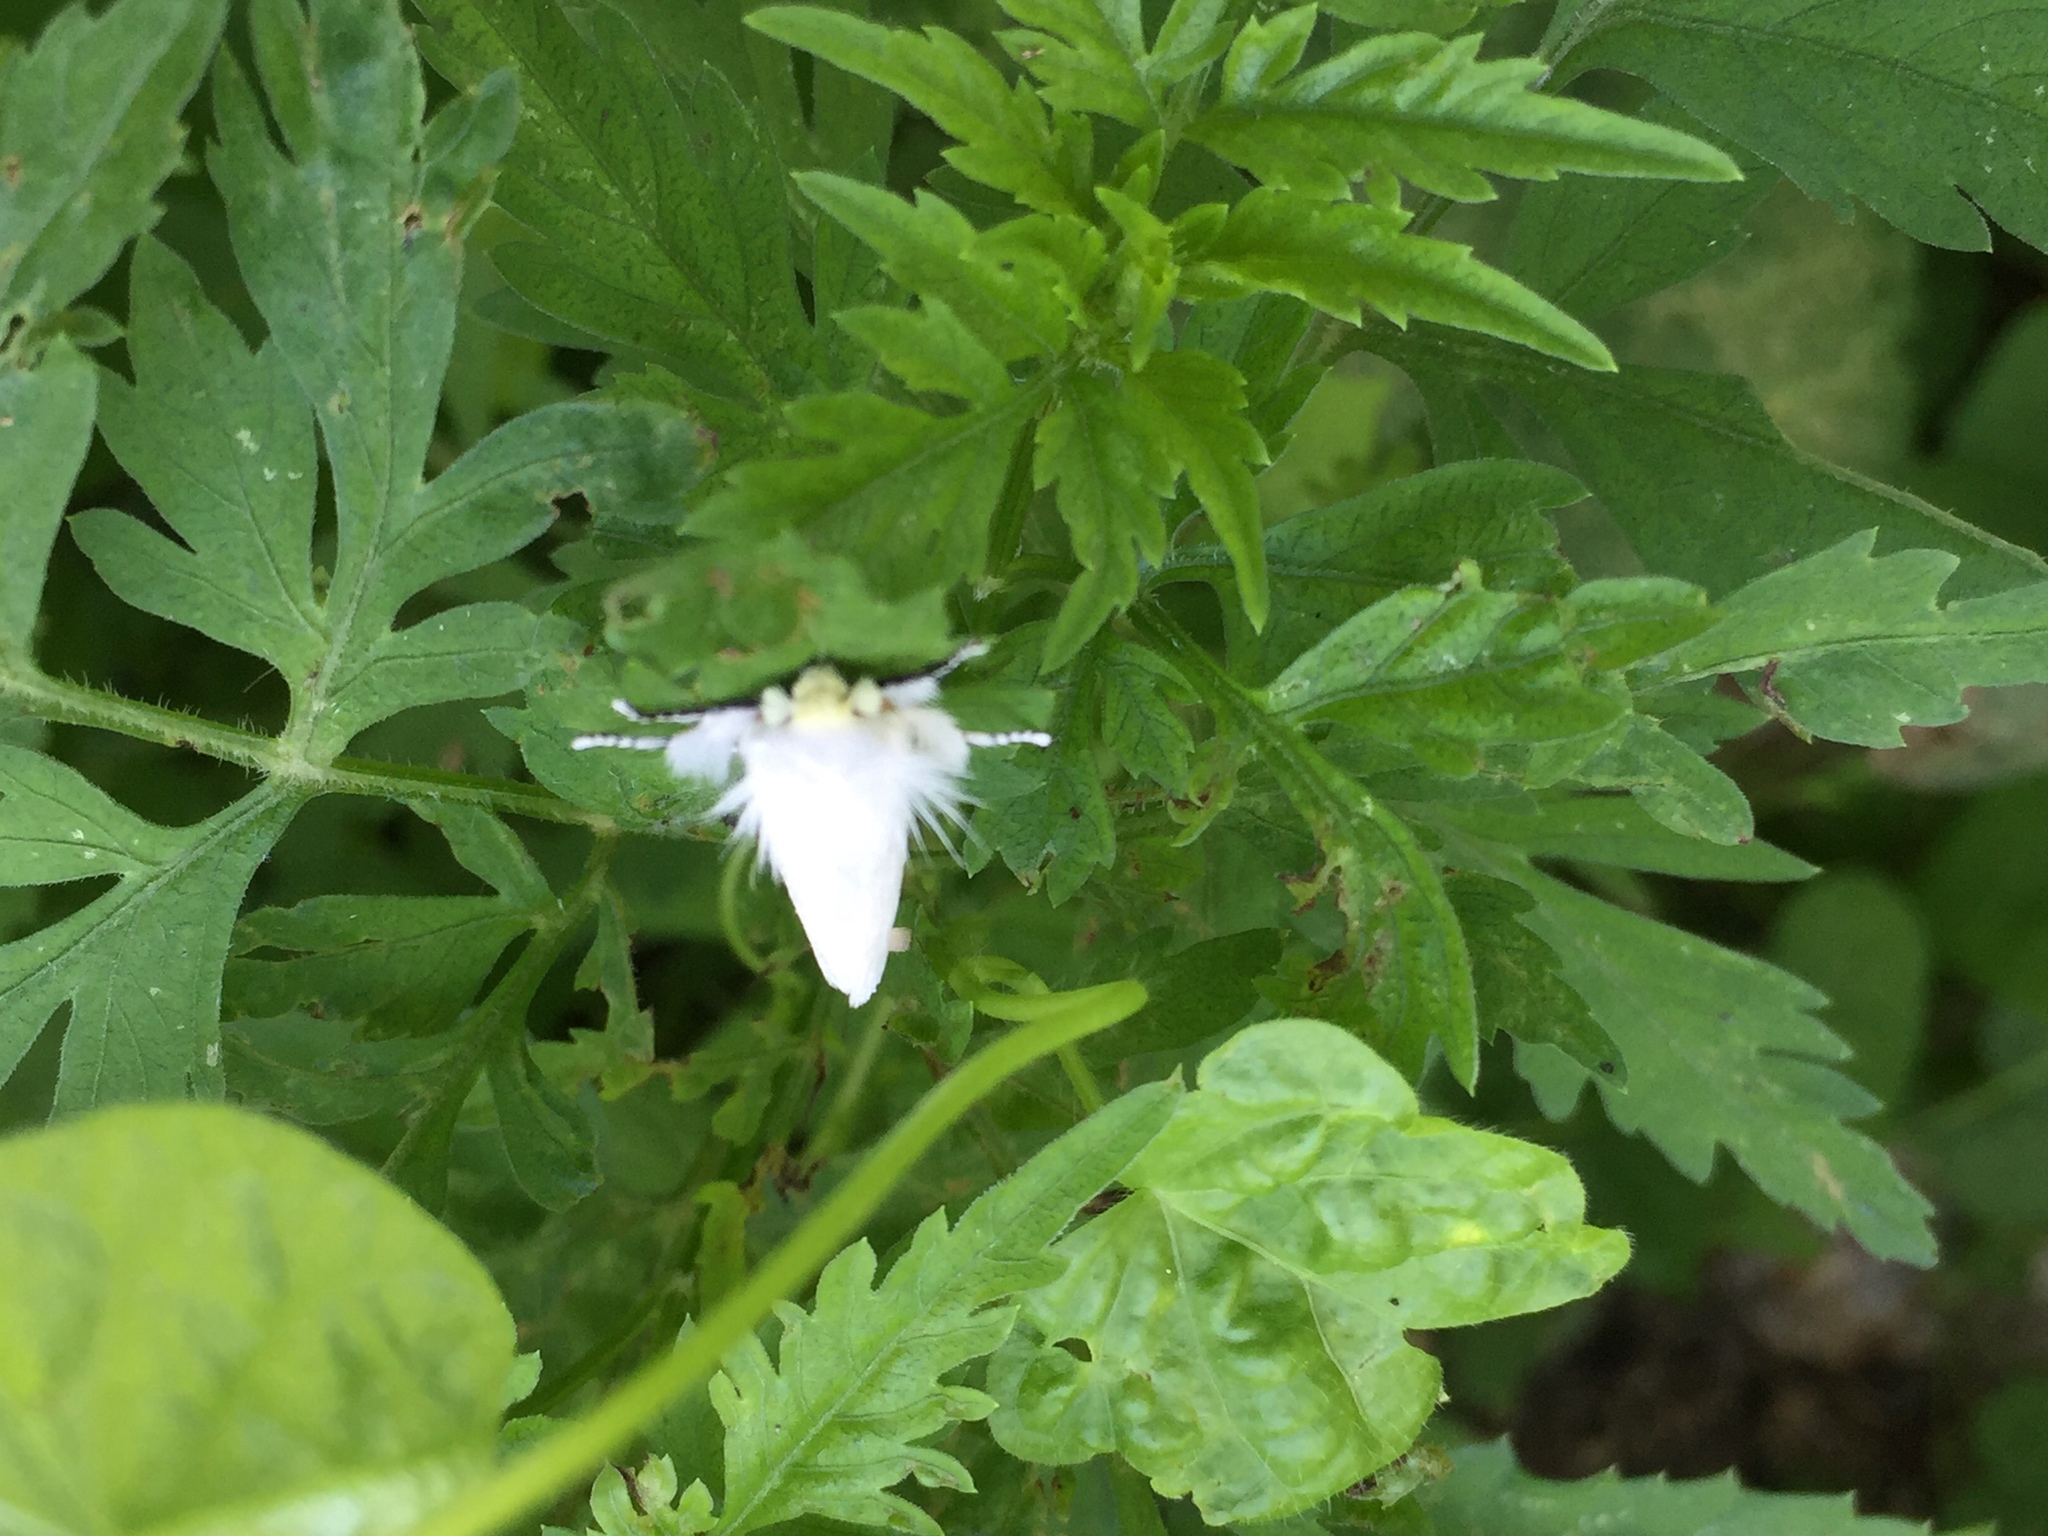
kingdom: Animalia
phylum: Arthropoda
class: Insecta
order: Lepidoptera
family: Megalopygidae
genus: Norape
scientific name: Norape sorpresa
